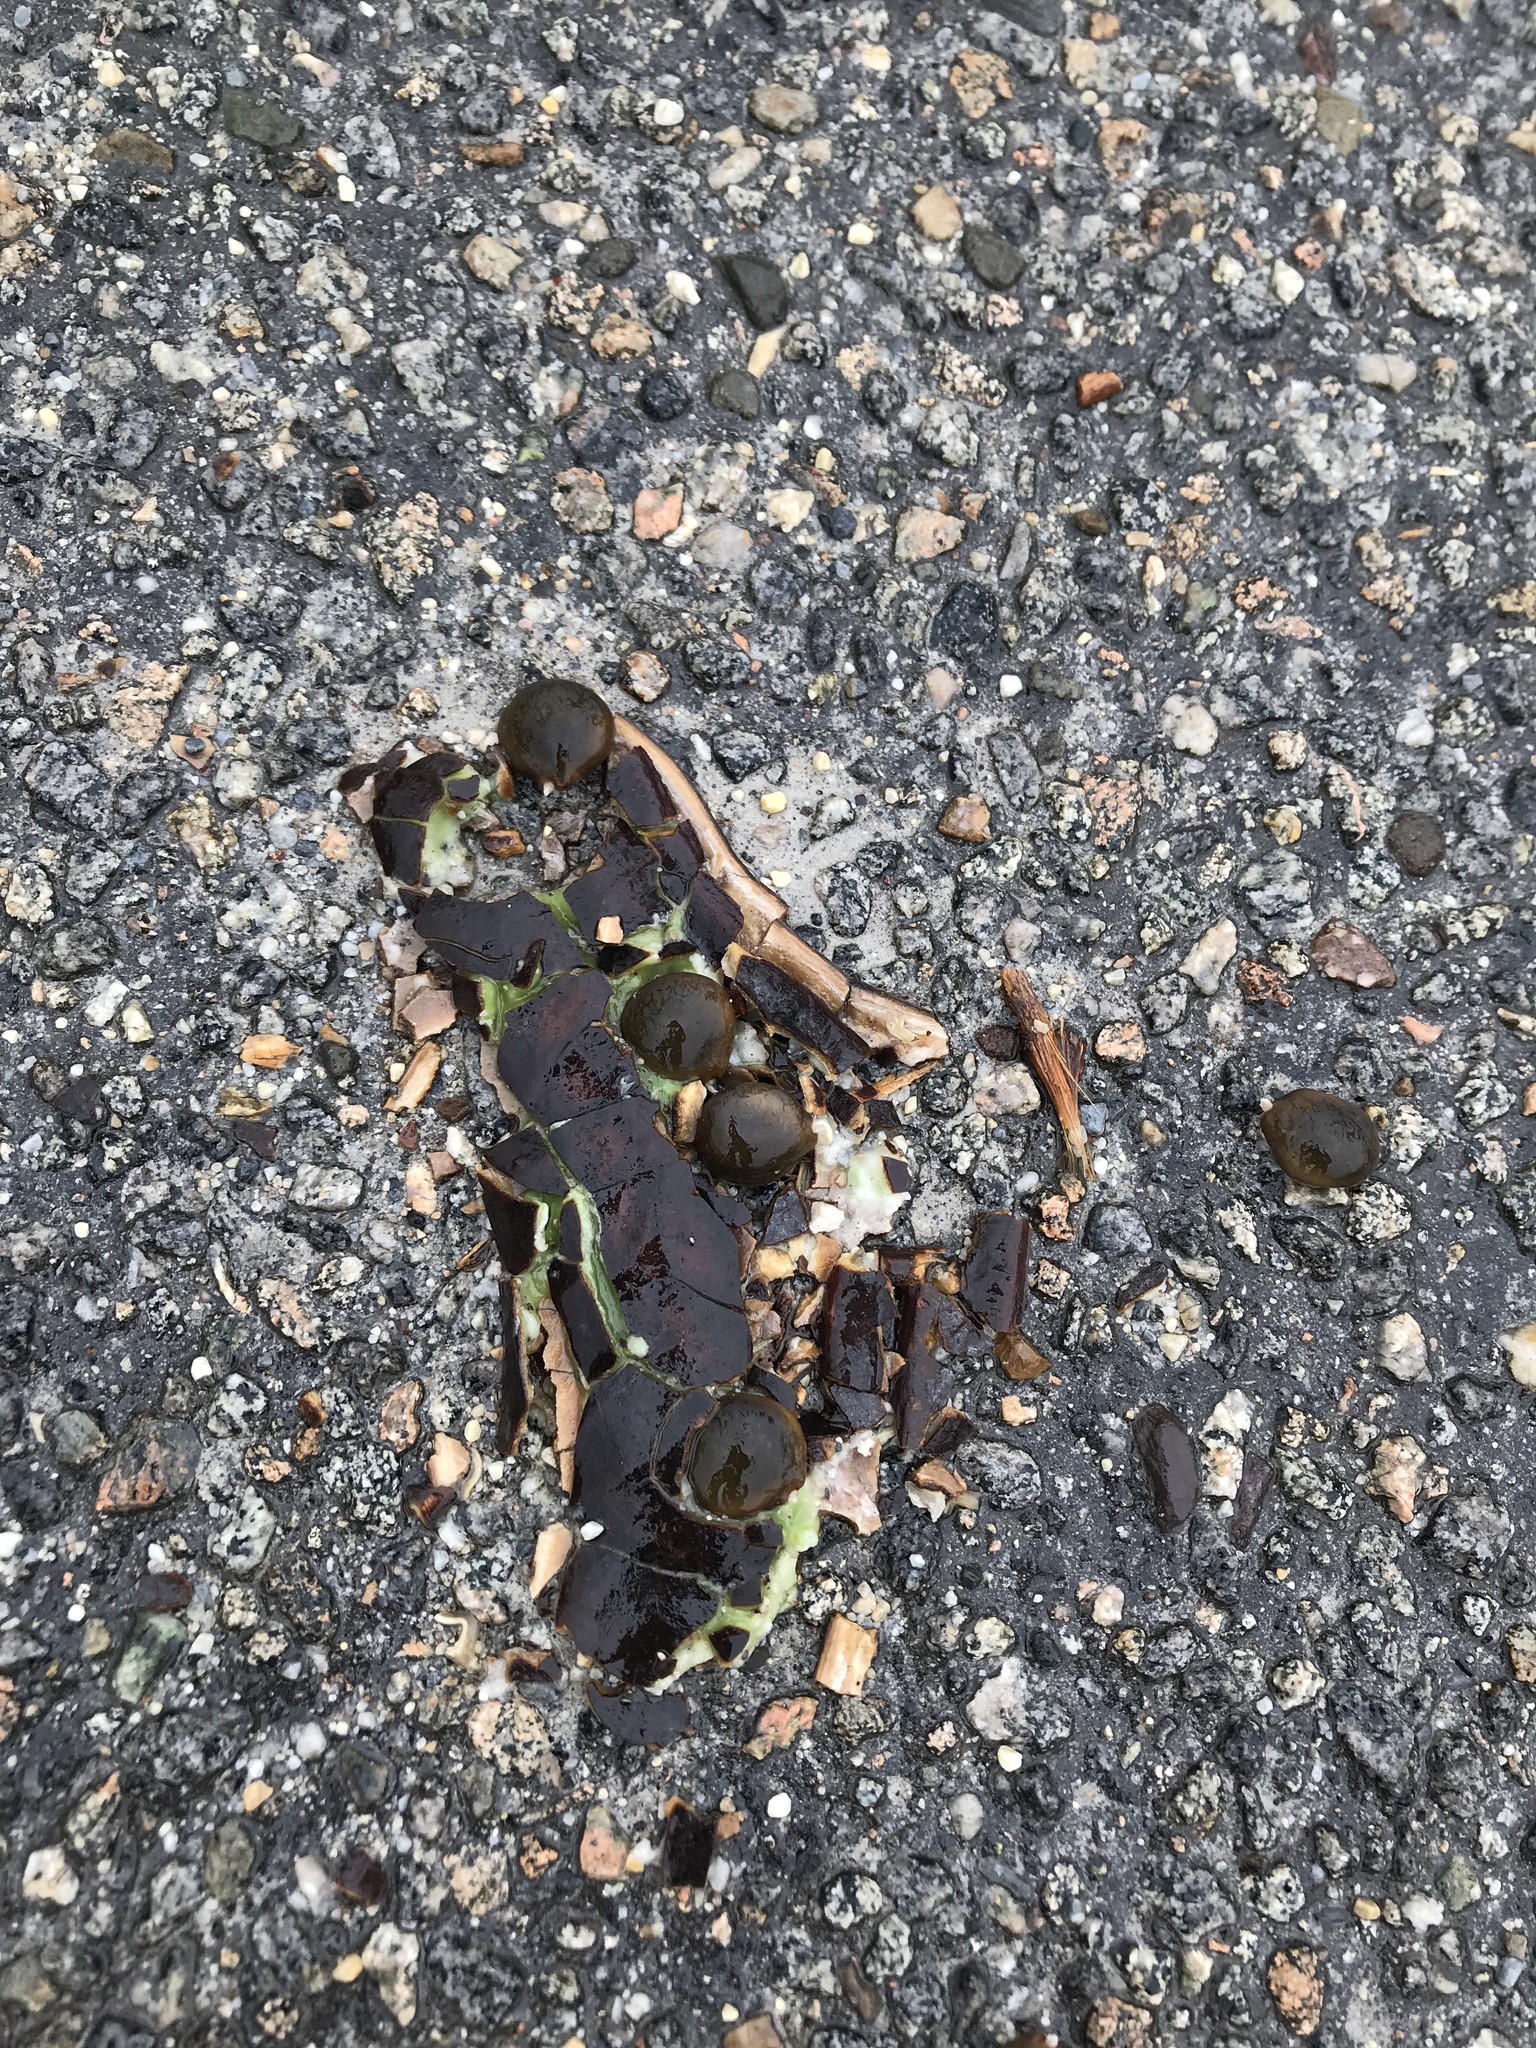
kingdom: Plantae
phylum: Tracheophyta
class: Magnoliopsida
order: Fabales
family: Fabaceae
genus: Gymnocladus
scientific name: Gymnocladus dioicus
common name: Kentucky coffee-tree
